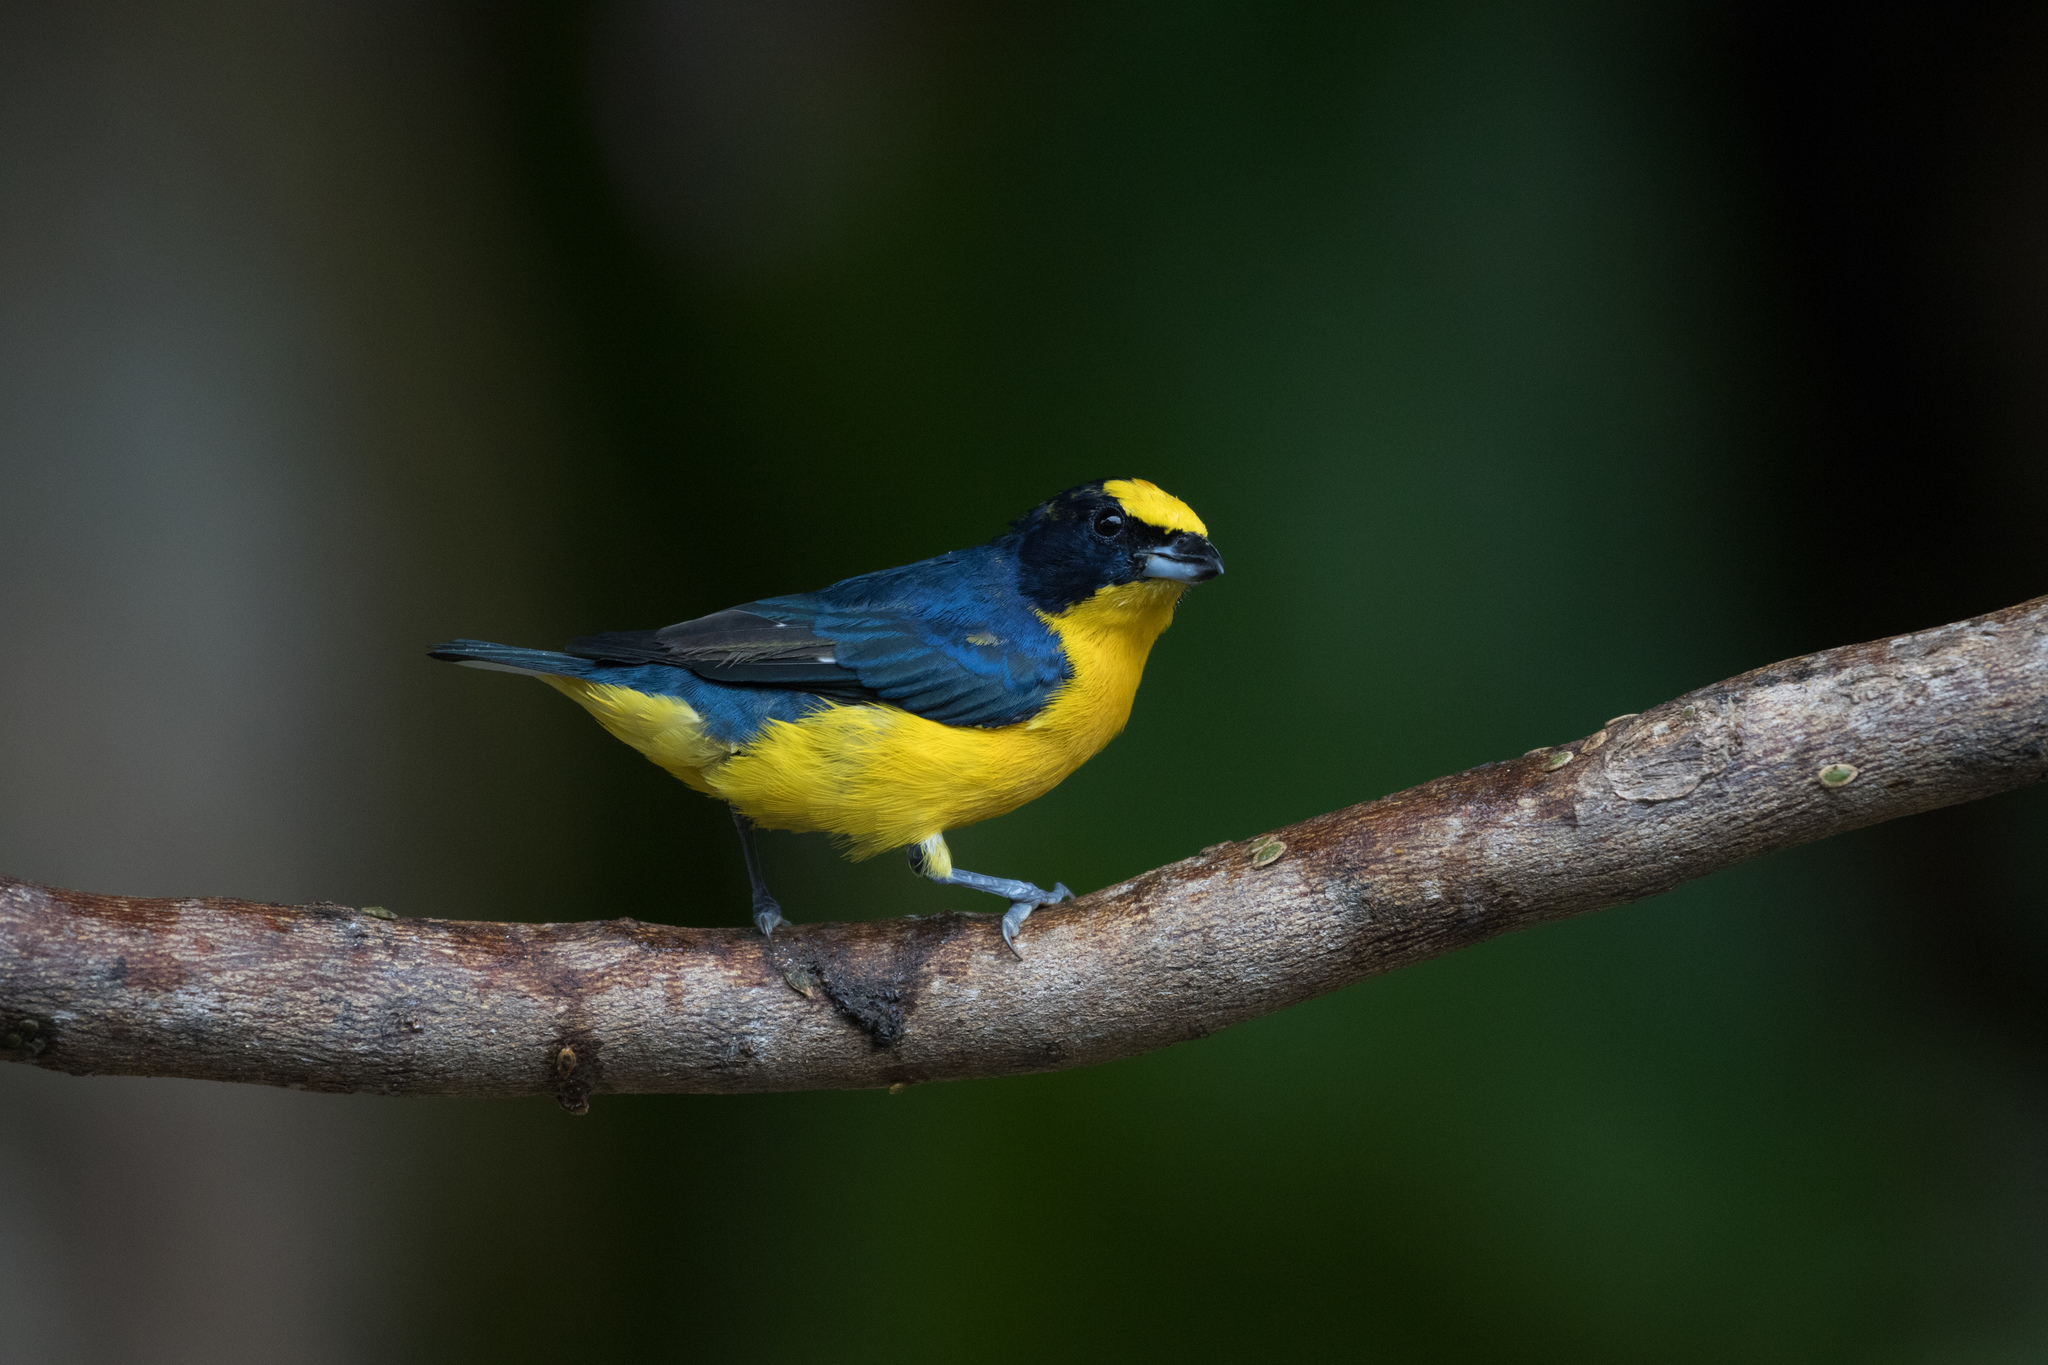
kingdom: Animalia
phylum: Chordata
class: Aves
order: Passeriformes
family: Fringillidae
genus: Euphonia
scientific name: Euphonia laniirostris
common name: Thick-billed euphonia
